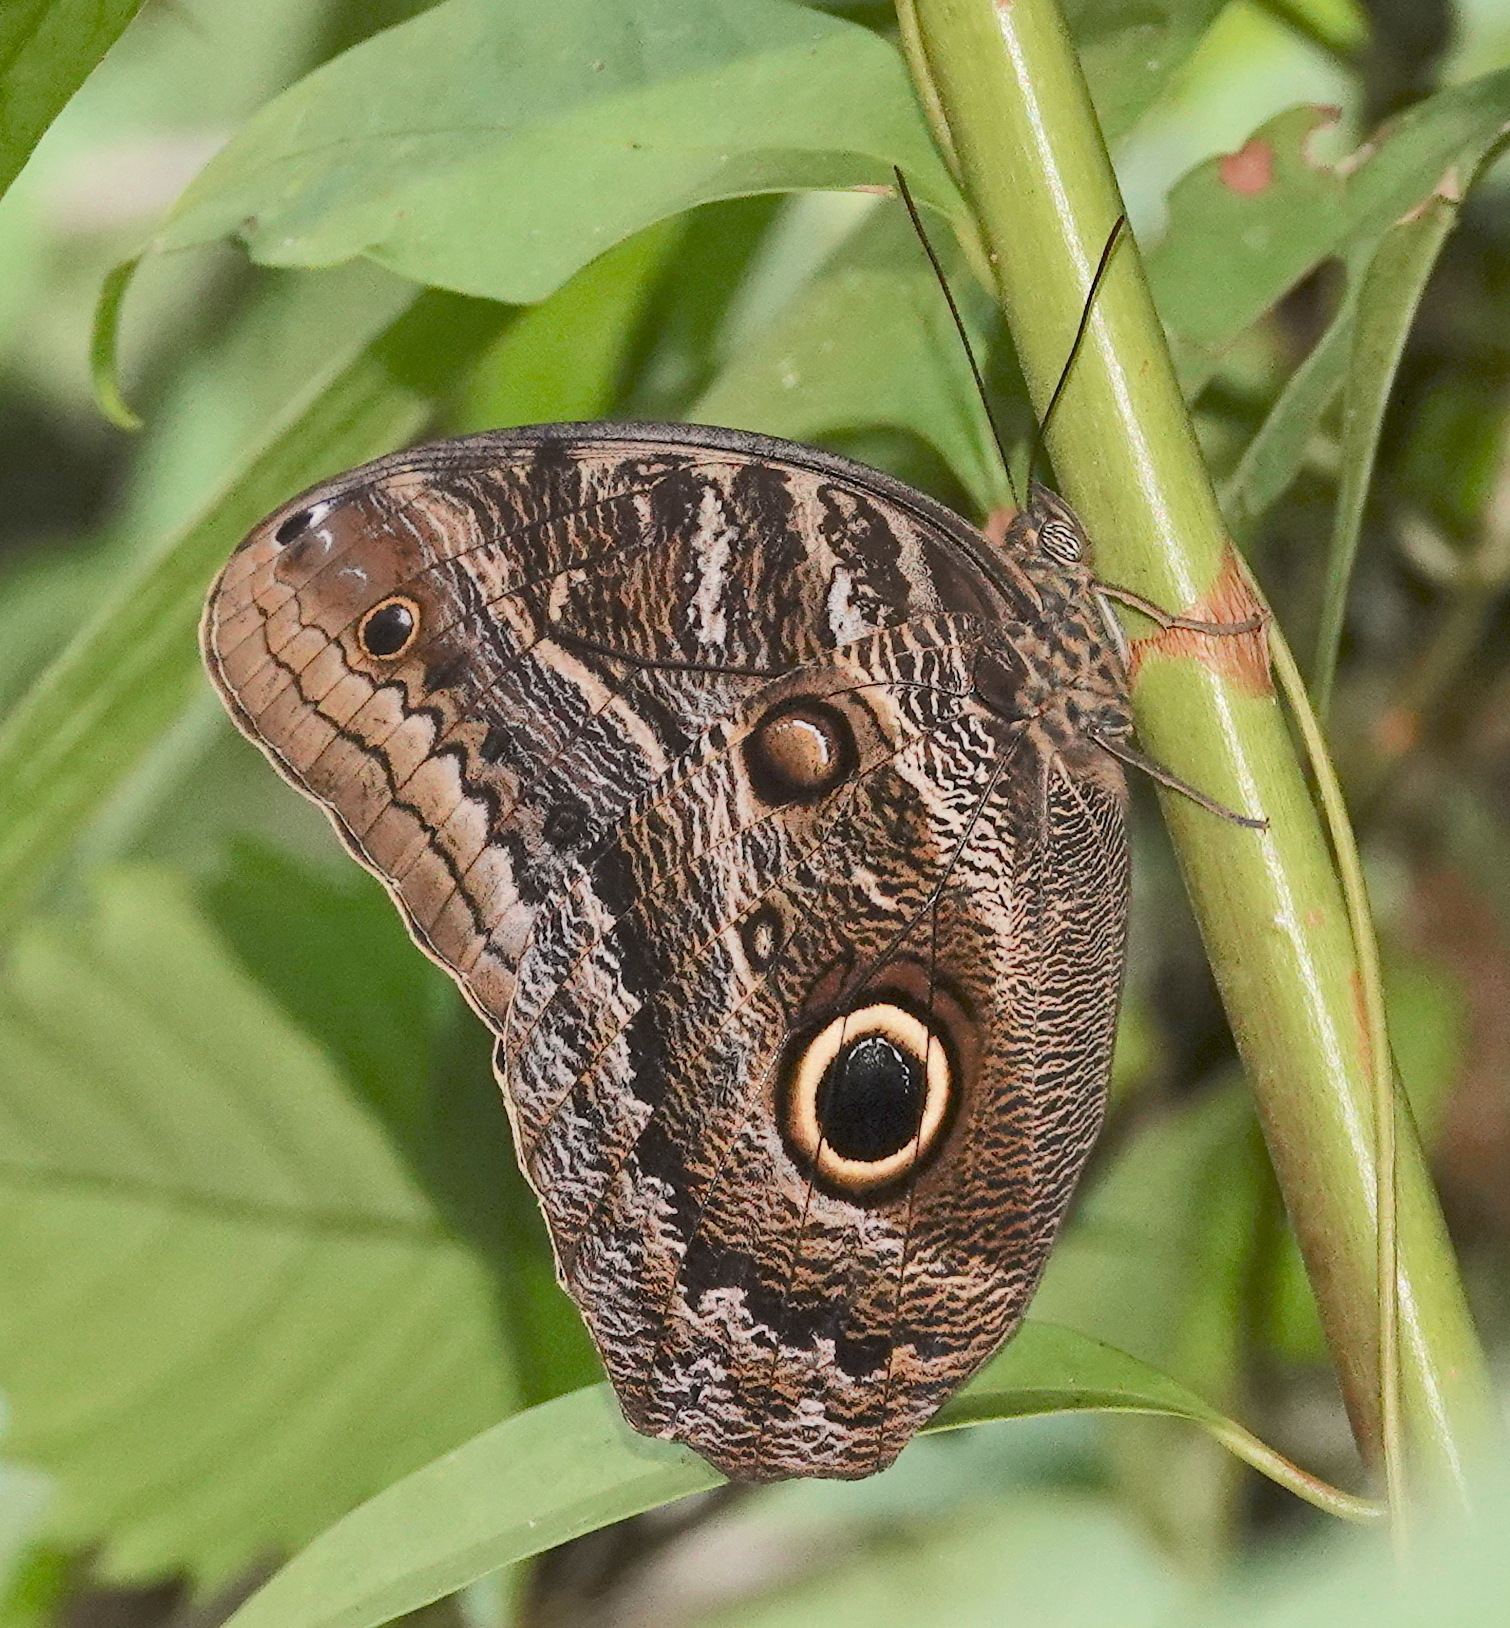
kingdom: Animalia
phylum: Arthropoda
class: Insecta
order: Lepidoptera
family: Nymphalidae
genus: Caligo
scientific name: Caligo illioneus
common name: Dusky owl-butterfly
